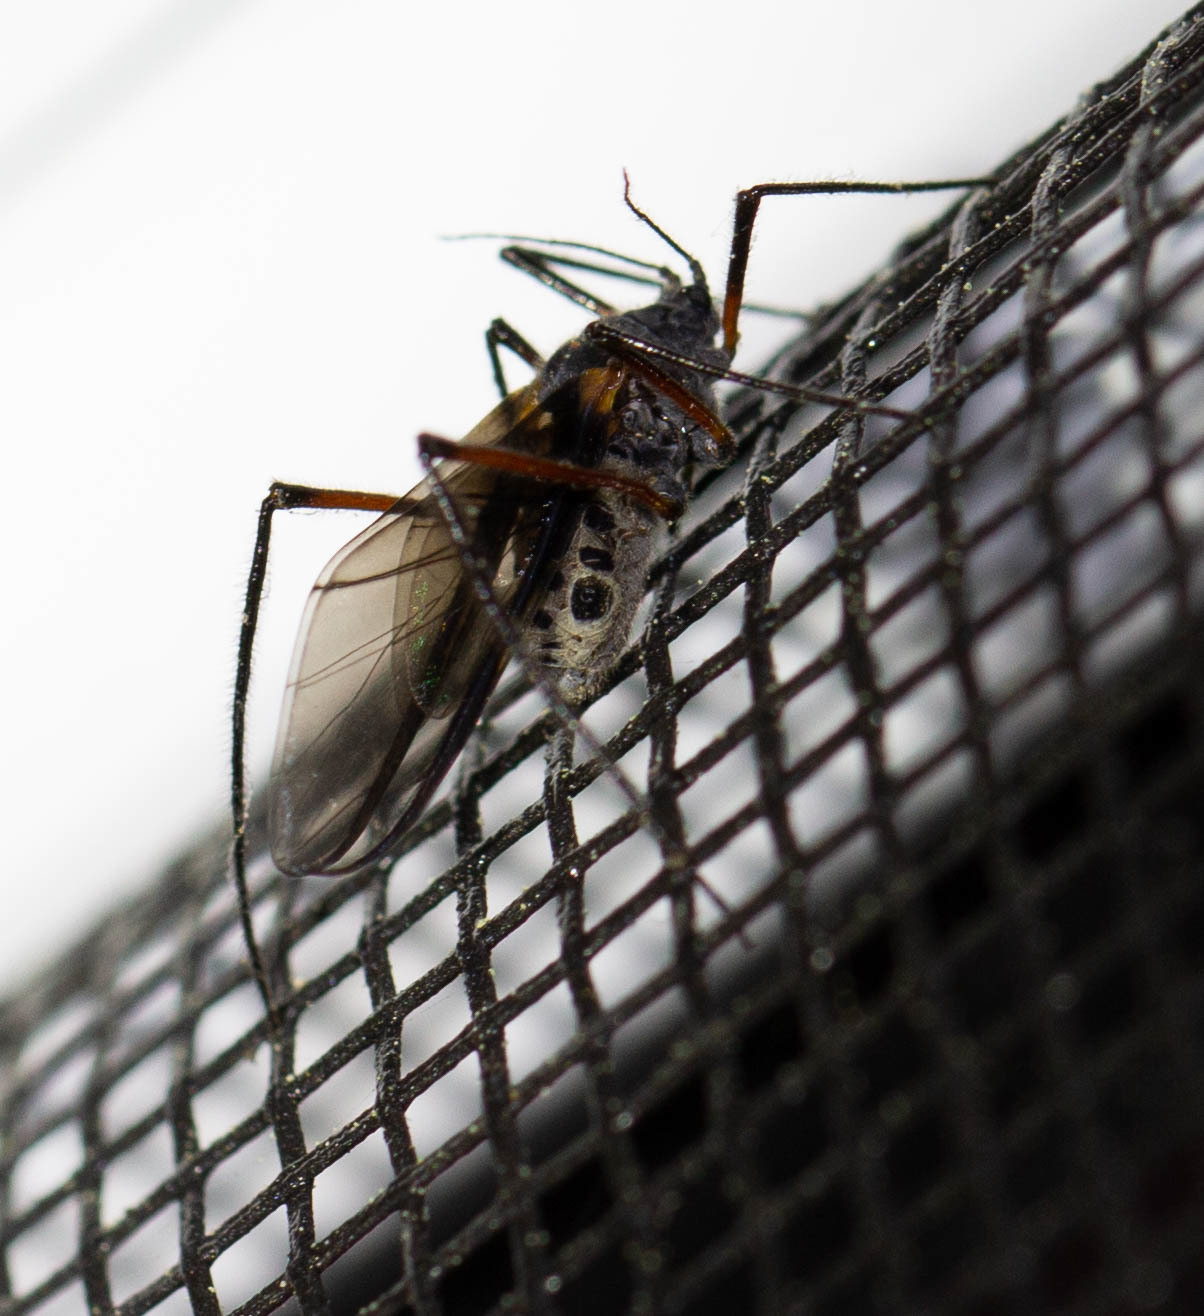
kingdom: Animalia
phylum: Arthropoda
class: Insecta
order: Hemiptera
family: Aphididae
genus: Longistigma
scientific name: Longistigma caryae
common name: Giant bark aphid
